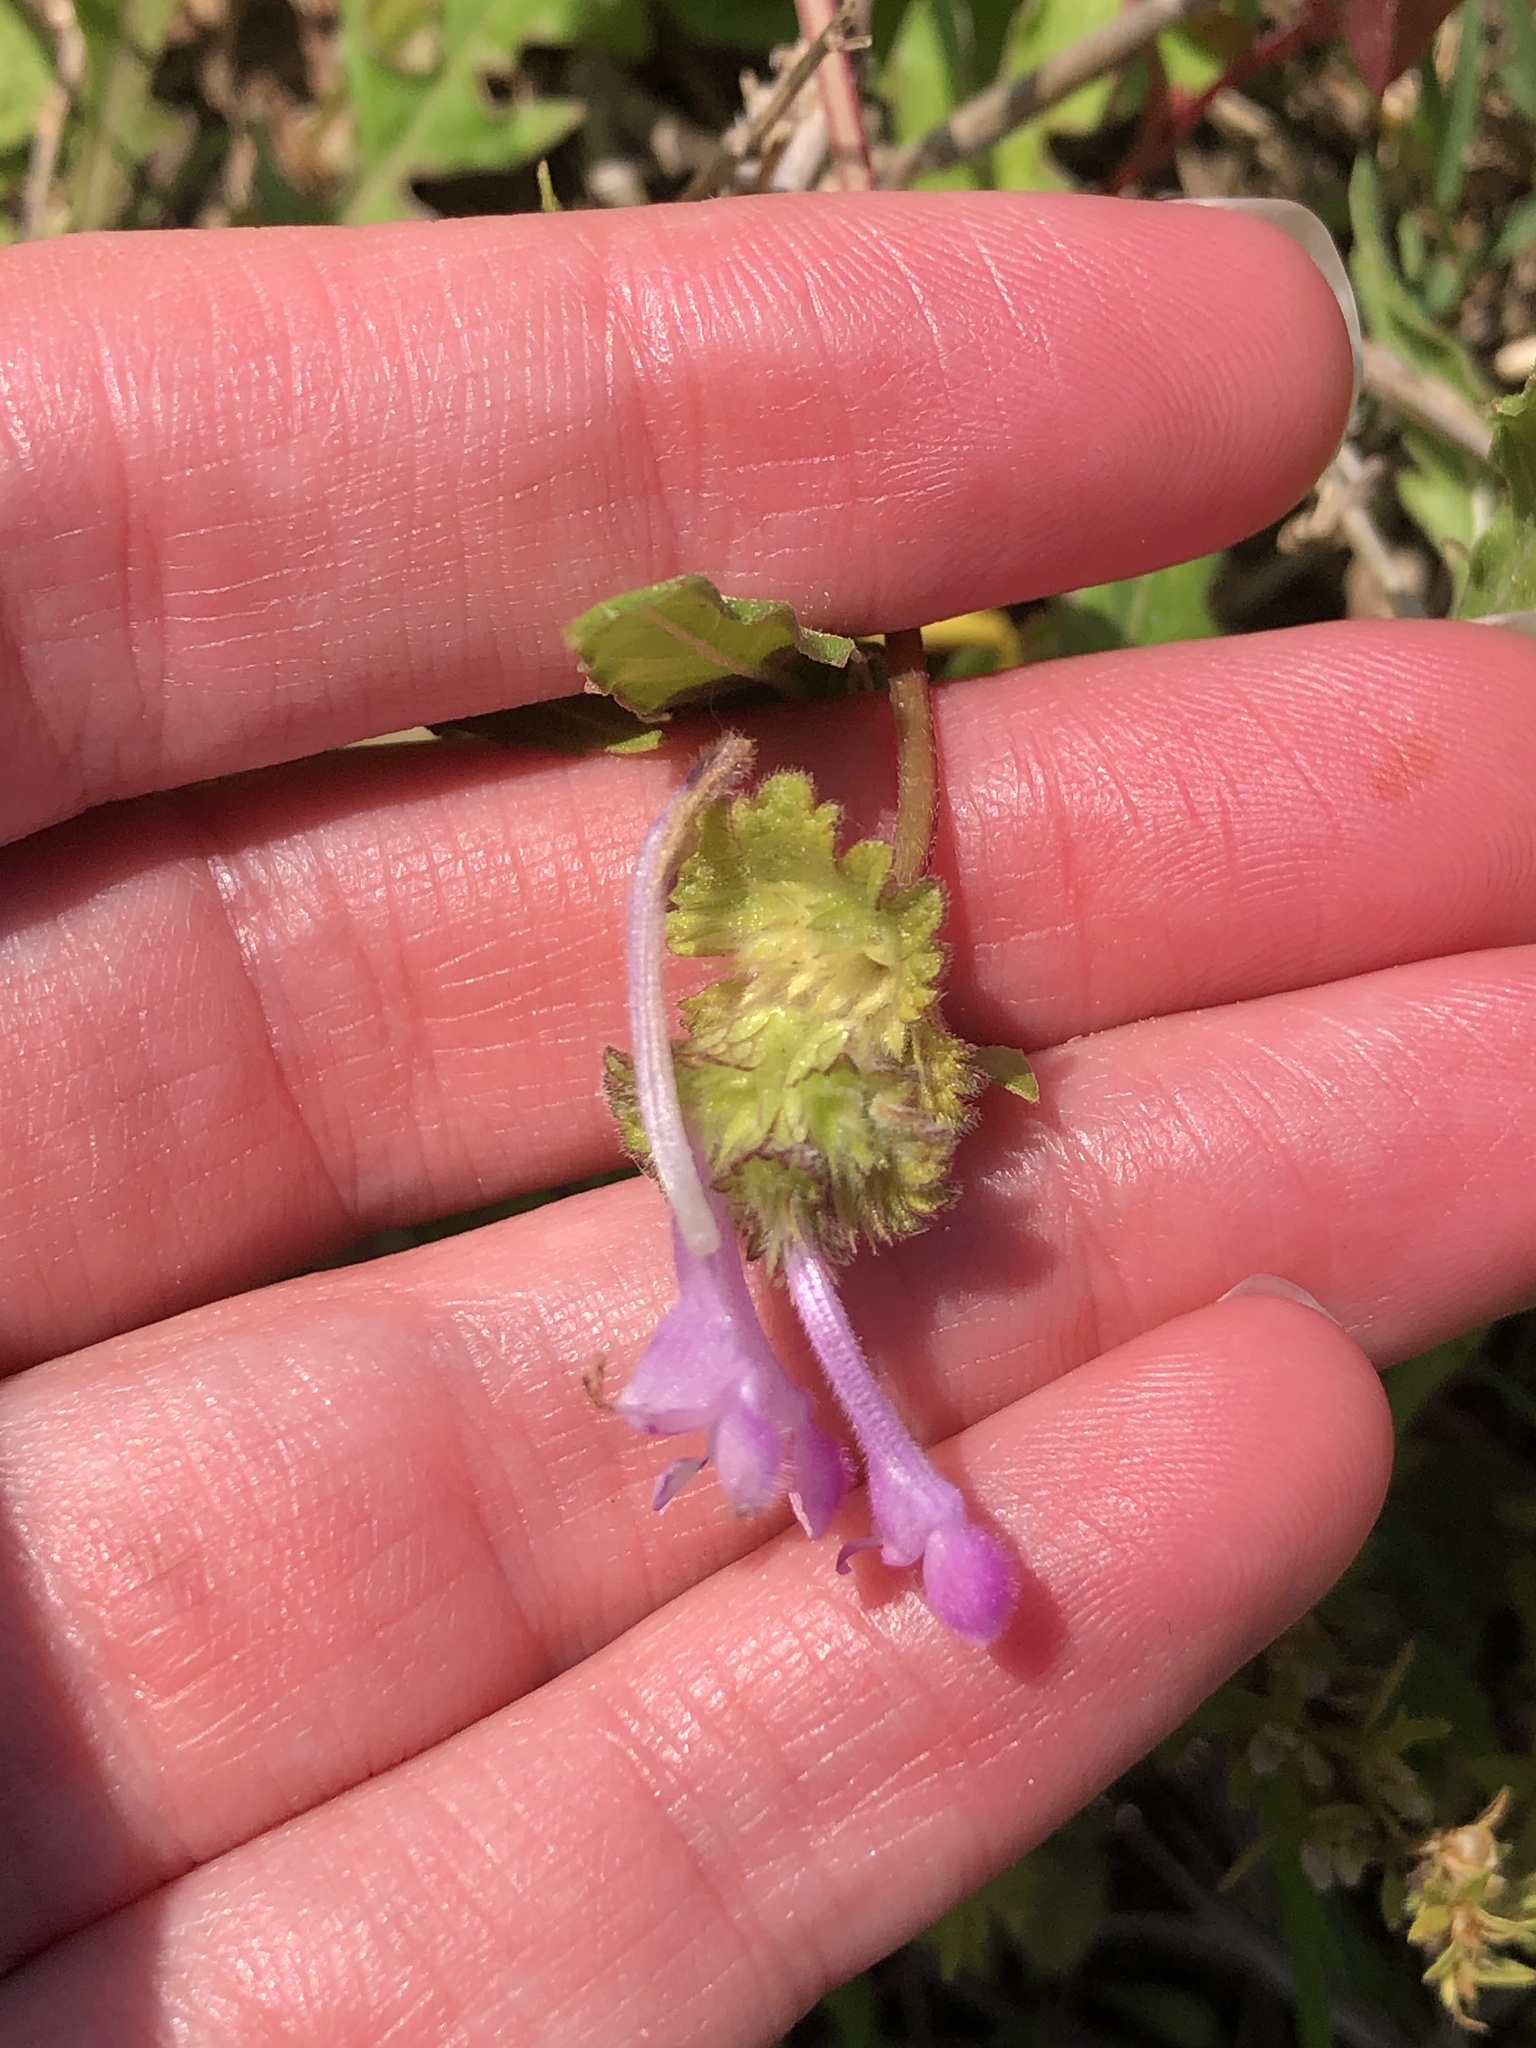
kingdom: Plantae
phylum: Tracheophyta
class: Magnoliopsida
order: Lamiales
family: Lamiaceae
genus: Lamium
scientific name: Lamium amplexicaule
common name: Henbit dead-nettle
